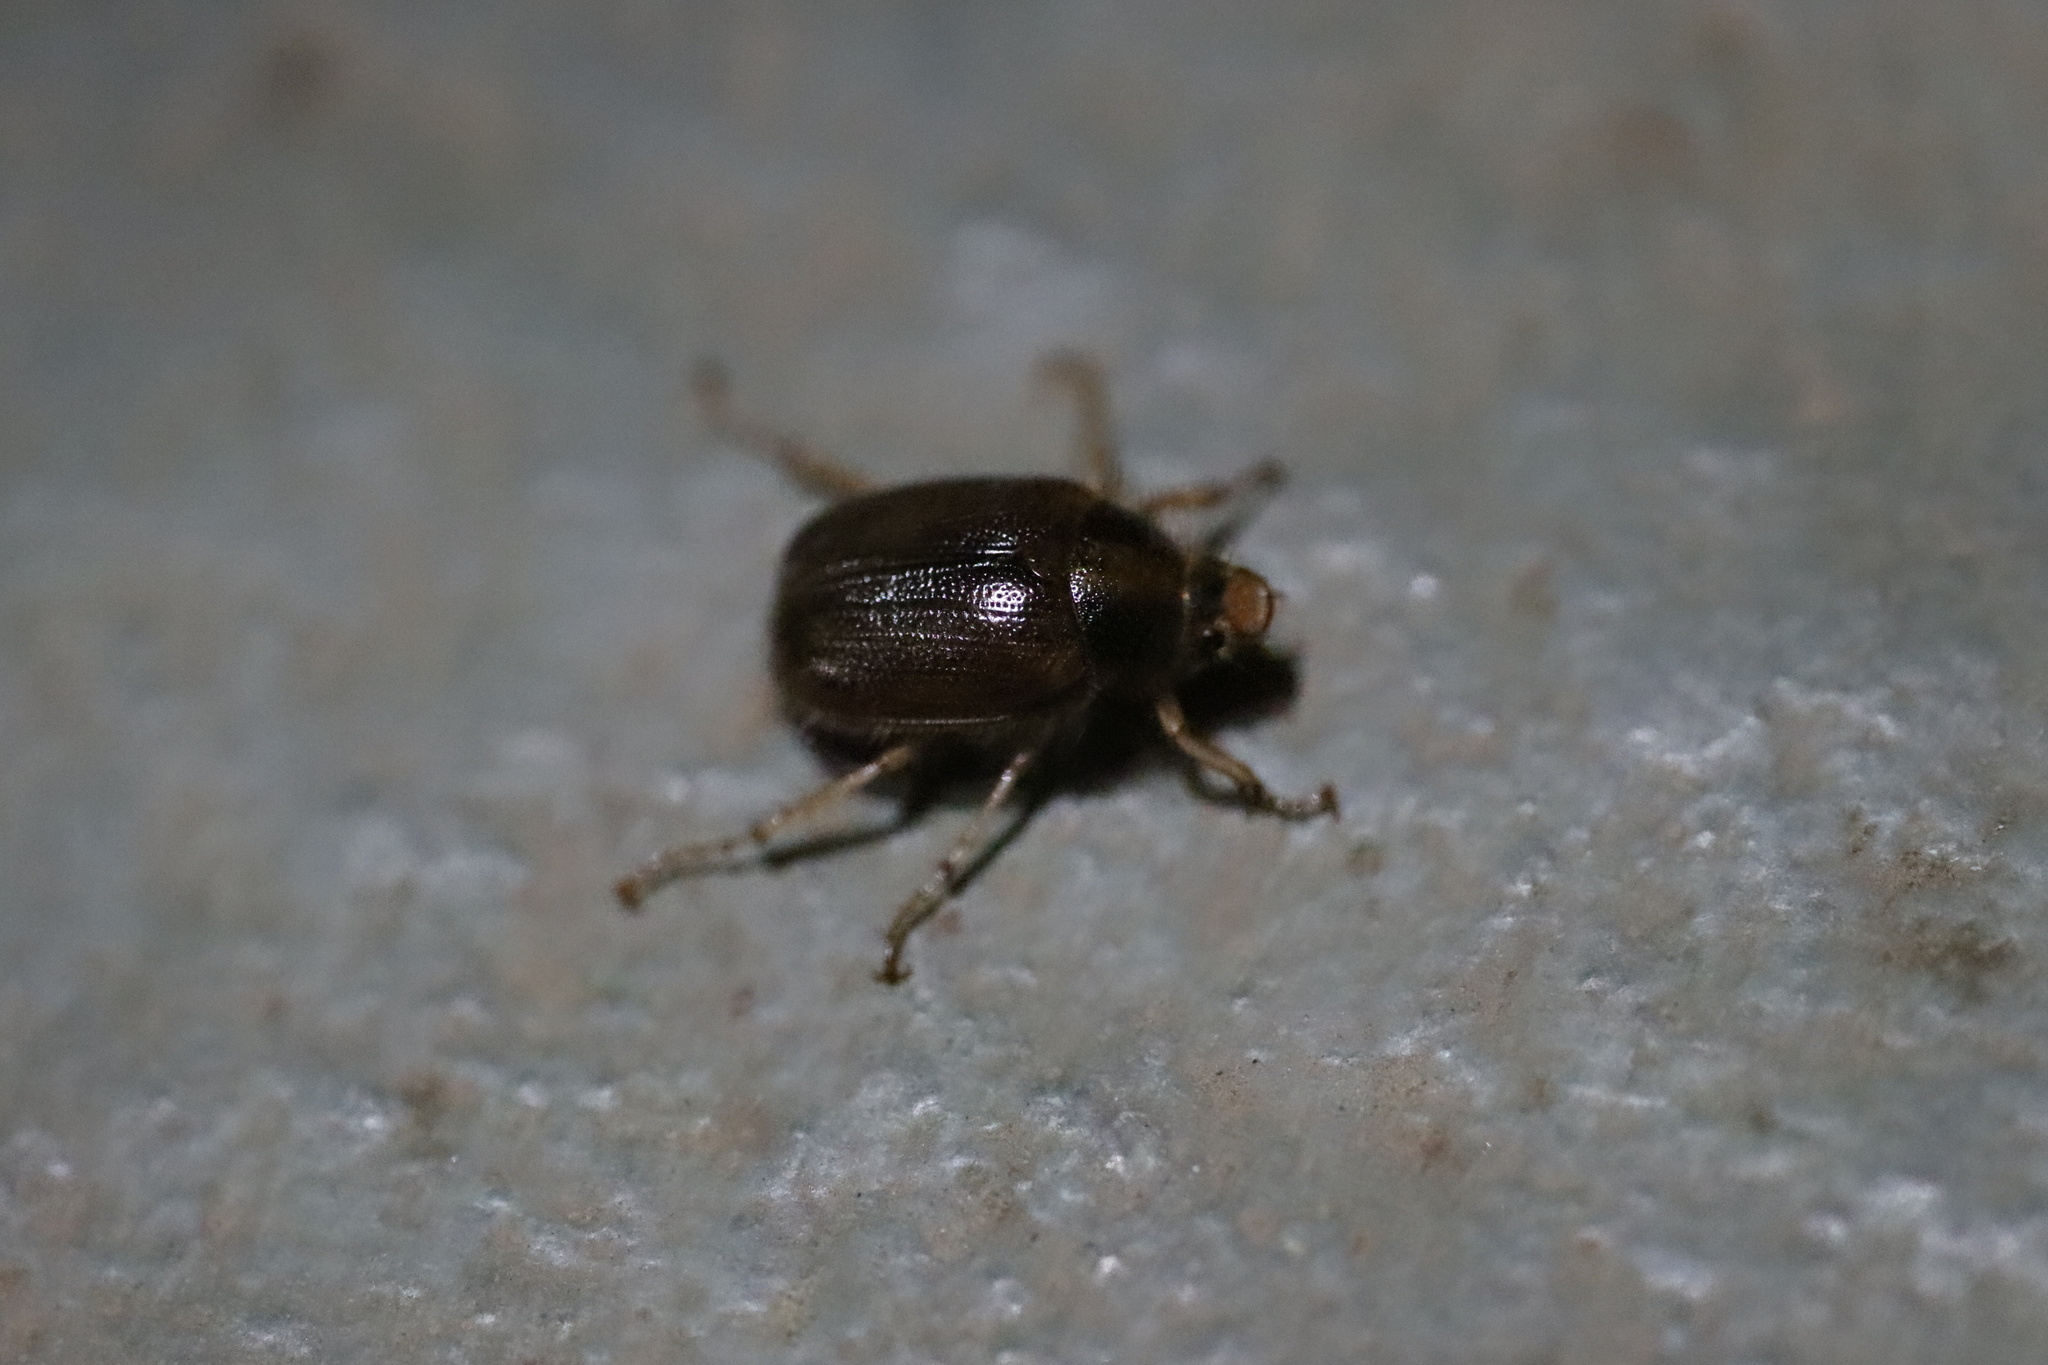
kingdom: Animalia
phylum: Arthropoda
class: Insecta
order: Coleoptera
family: Scarabaeidae
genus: Phytholaema
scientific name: Phytholaema herrmanni
